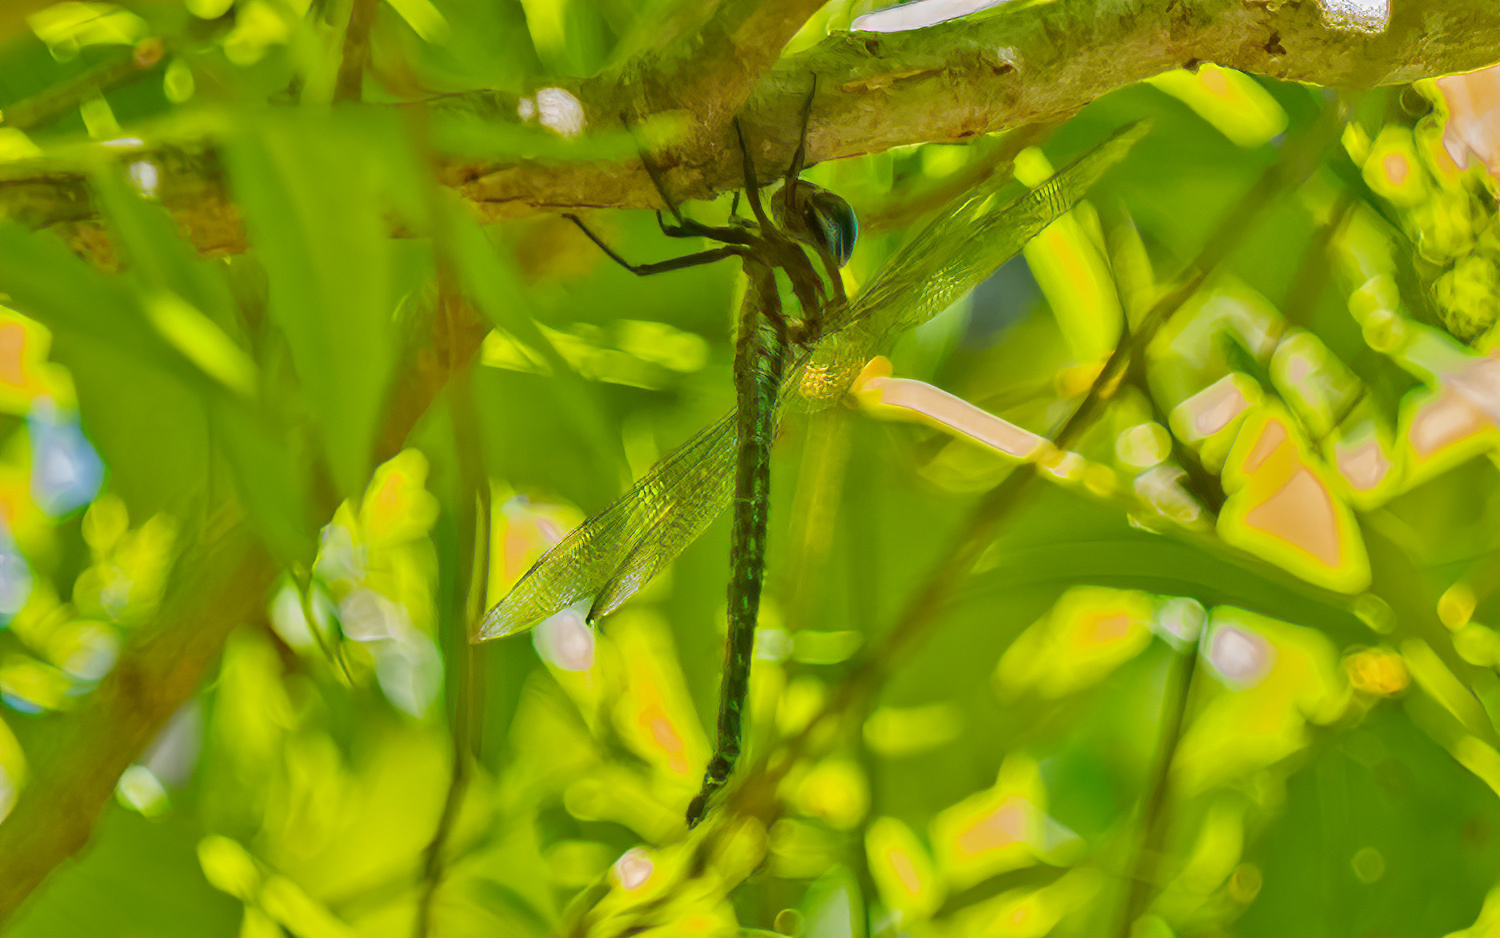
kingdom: Animalia
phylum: Arthropoda
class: Insecta
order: Odonata
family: Aeshnidae
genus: Epiaeschna
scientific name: Epiaeschna heros
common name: Swamp darner
